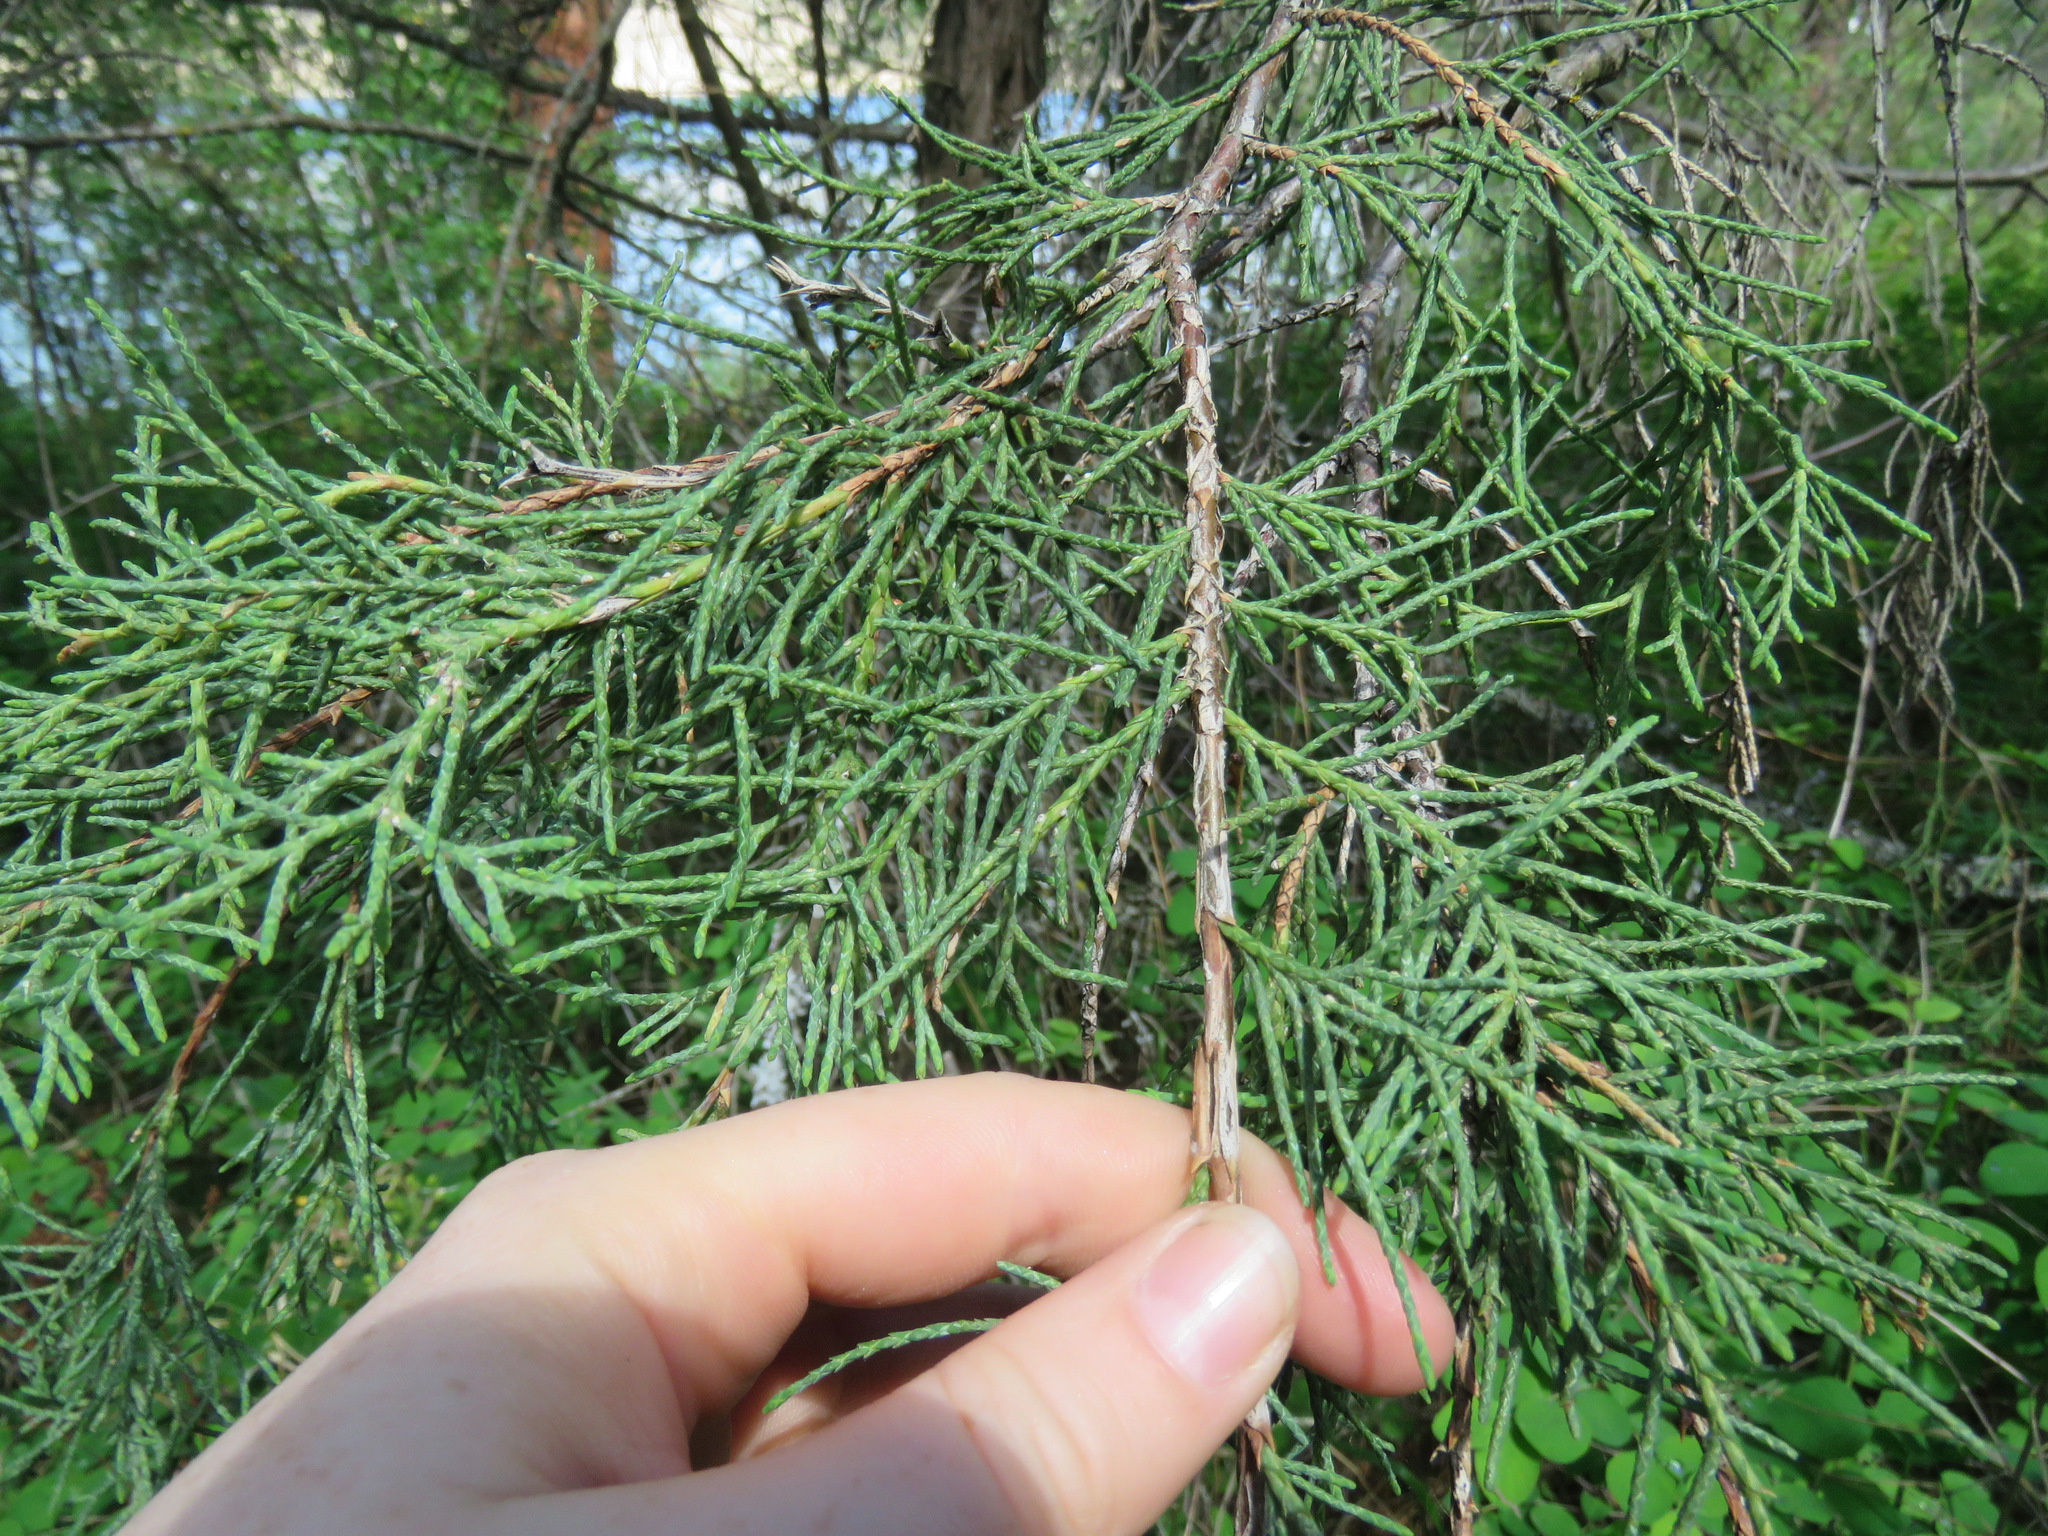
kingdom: Plantae
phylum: Tracheophyta
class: Pinopsida
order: Pinales
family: Cupressaceae
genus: Juniperus
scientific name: Juniperus scopulorum
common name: Rocky mountain juniper
